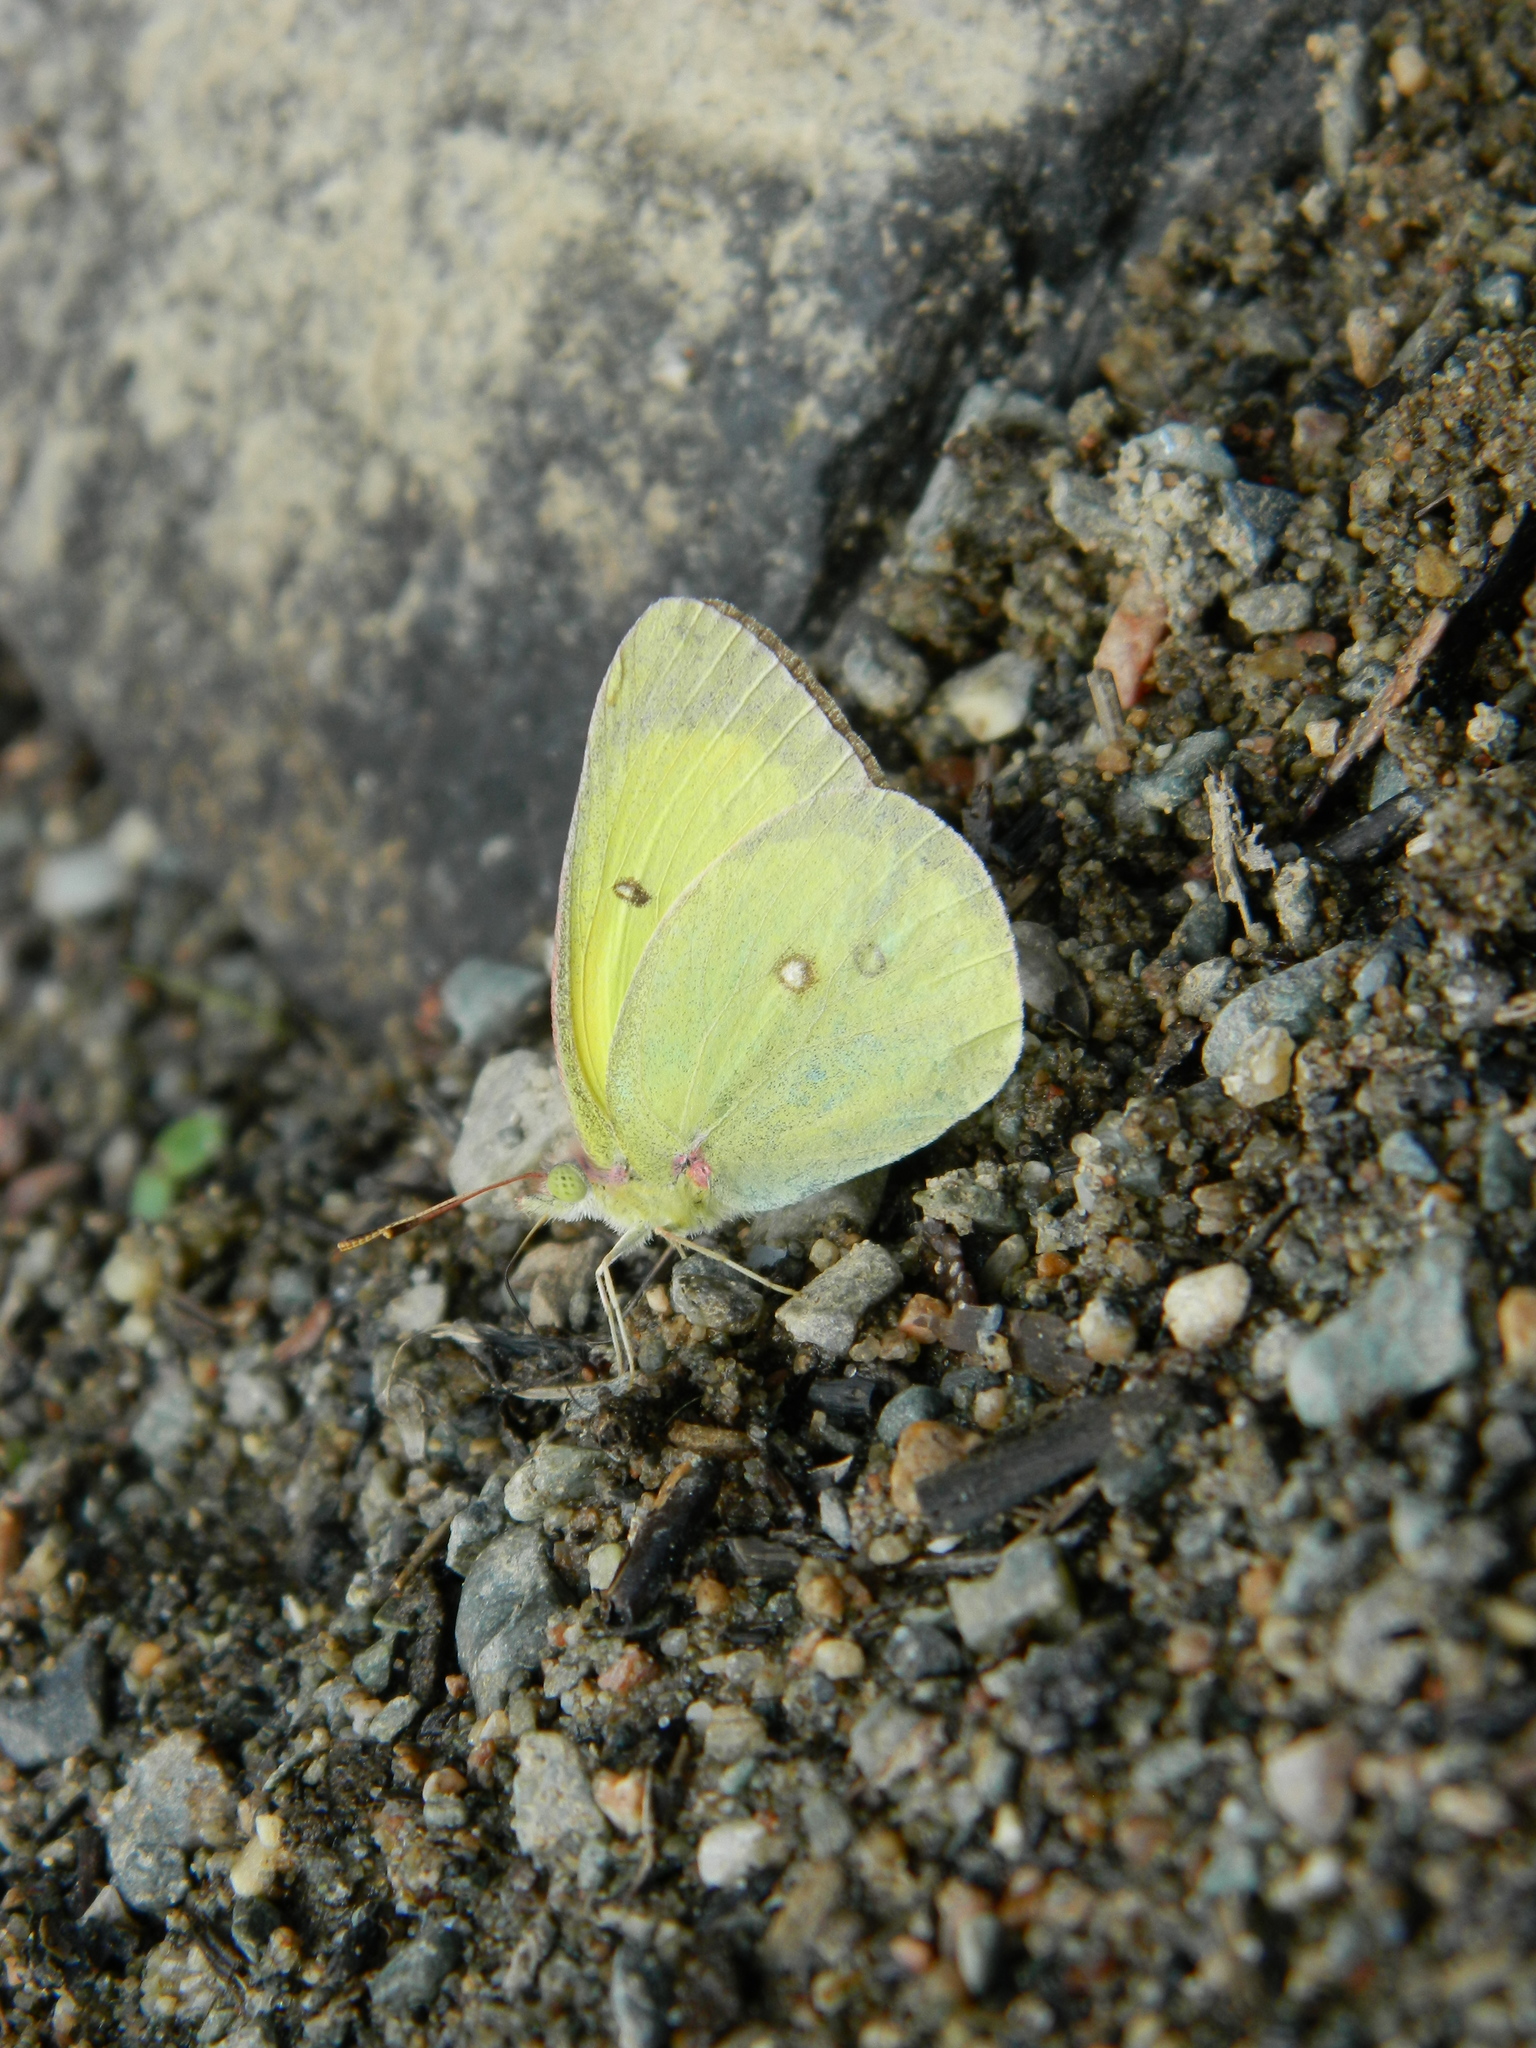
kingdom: Animalia
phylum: Arthropoda
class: Insecta
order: Lepidoptera
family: Pieridae
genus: Colias
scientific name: Colias interior
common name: Pink-edged sulphur
